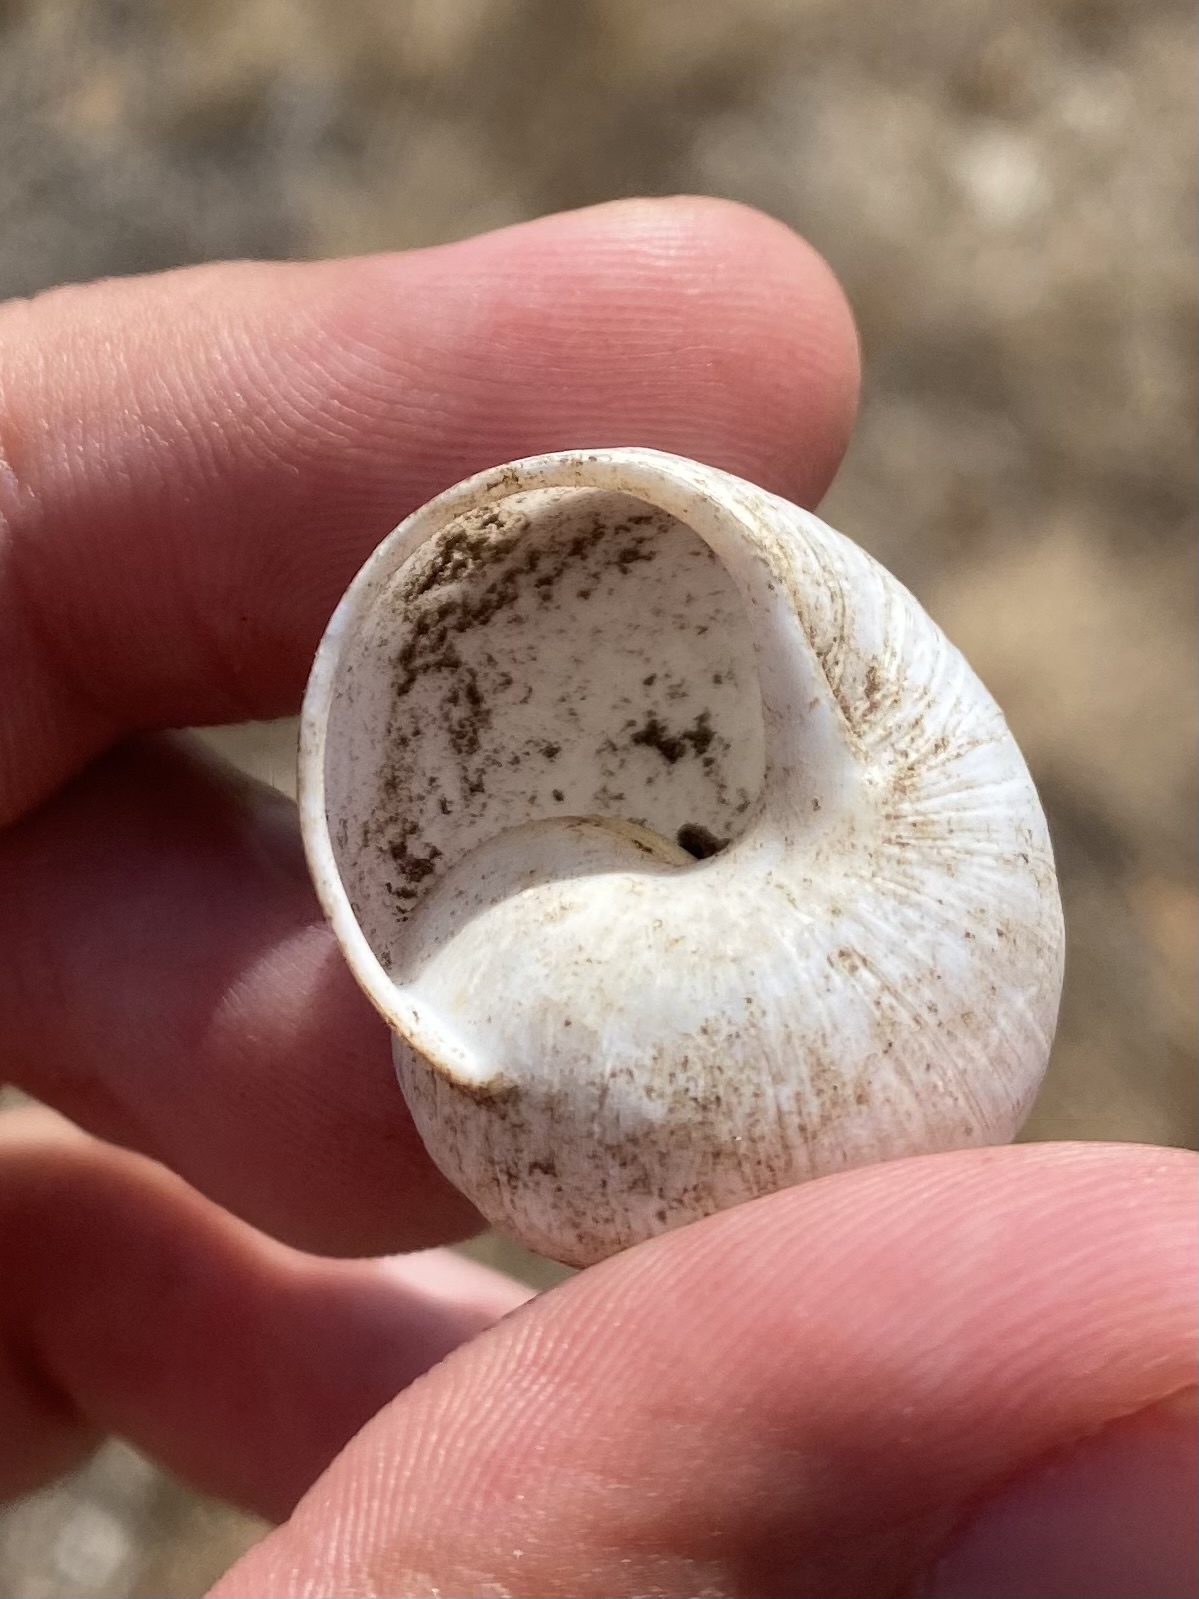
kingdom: Animalia
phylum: Mollusca
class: Gastropoda
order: Stylommatophora
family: Helicidae
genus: Helix
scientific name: Helix albescens
